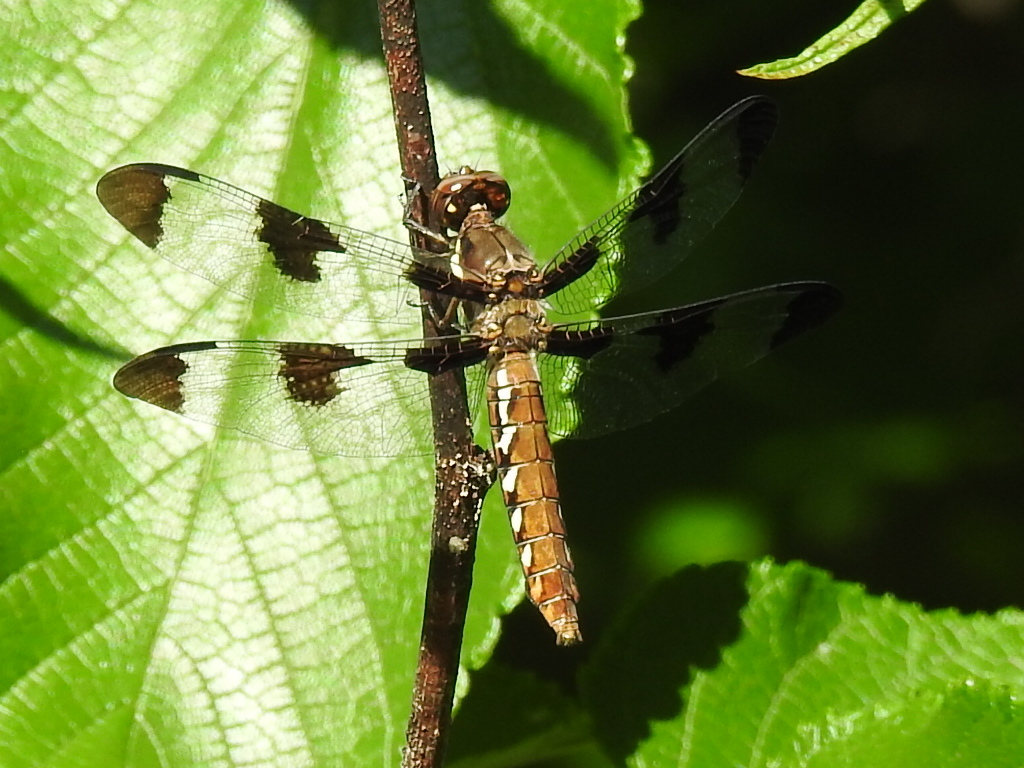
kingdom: Animalia
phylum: Arthropoda
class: Insecta
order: Odonata
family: Libellulidae
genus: Plathemis
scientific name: Plathemis lydia
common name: Common whitetail
